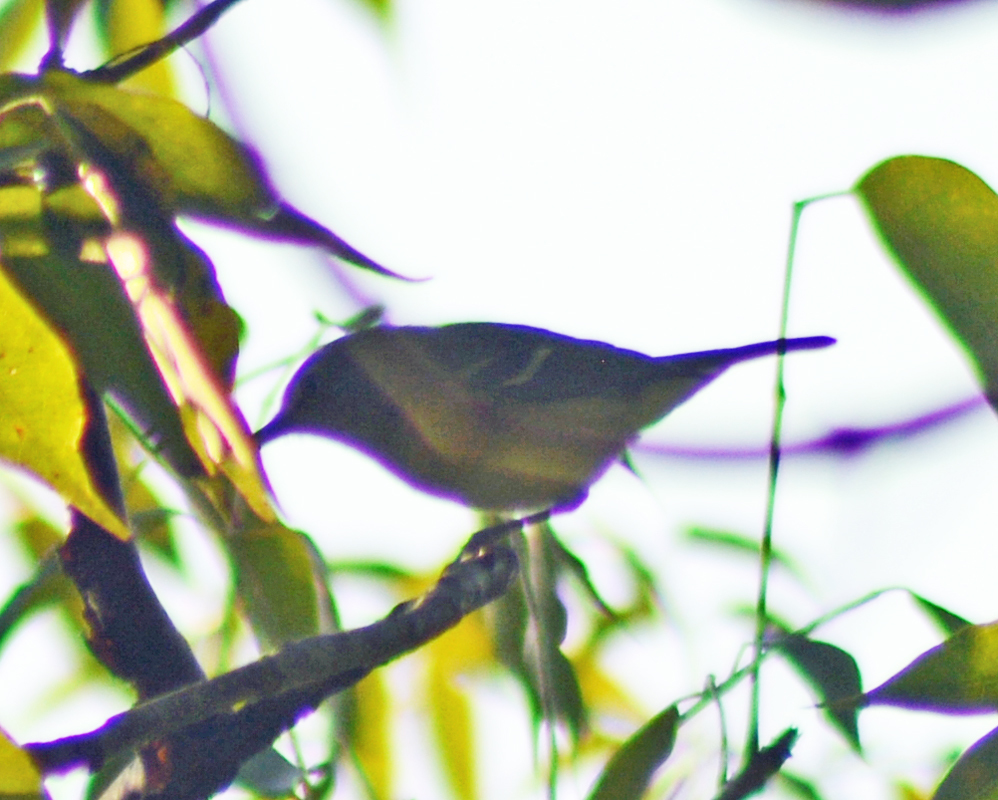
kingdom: Animalia
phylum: Chordata
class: Aves
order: Passeriformes
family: Vireonidae
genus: Vireo
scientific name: Vireo griseus
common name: White-eyed vireo
